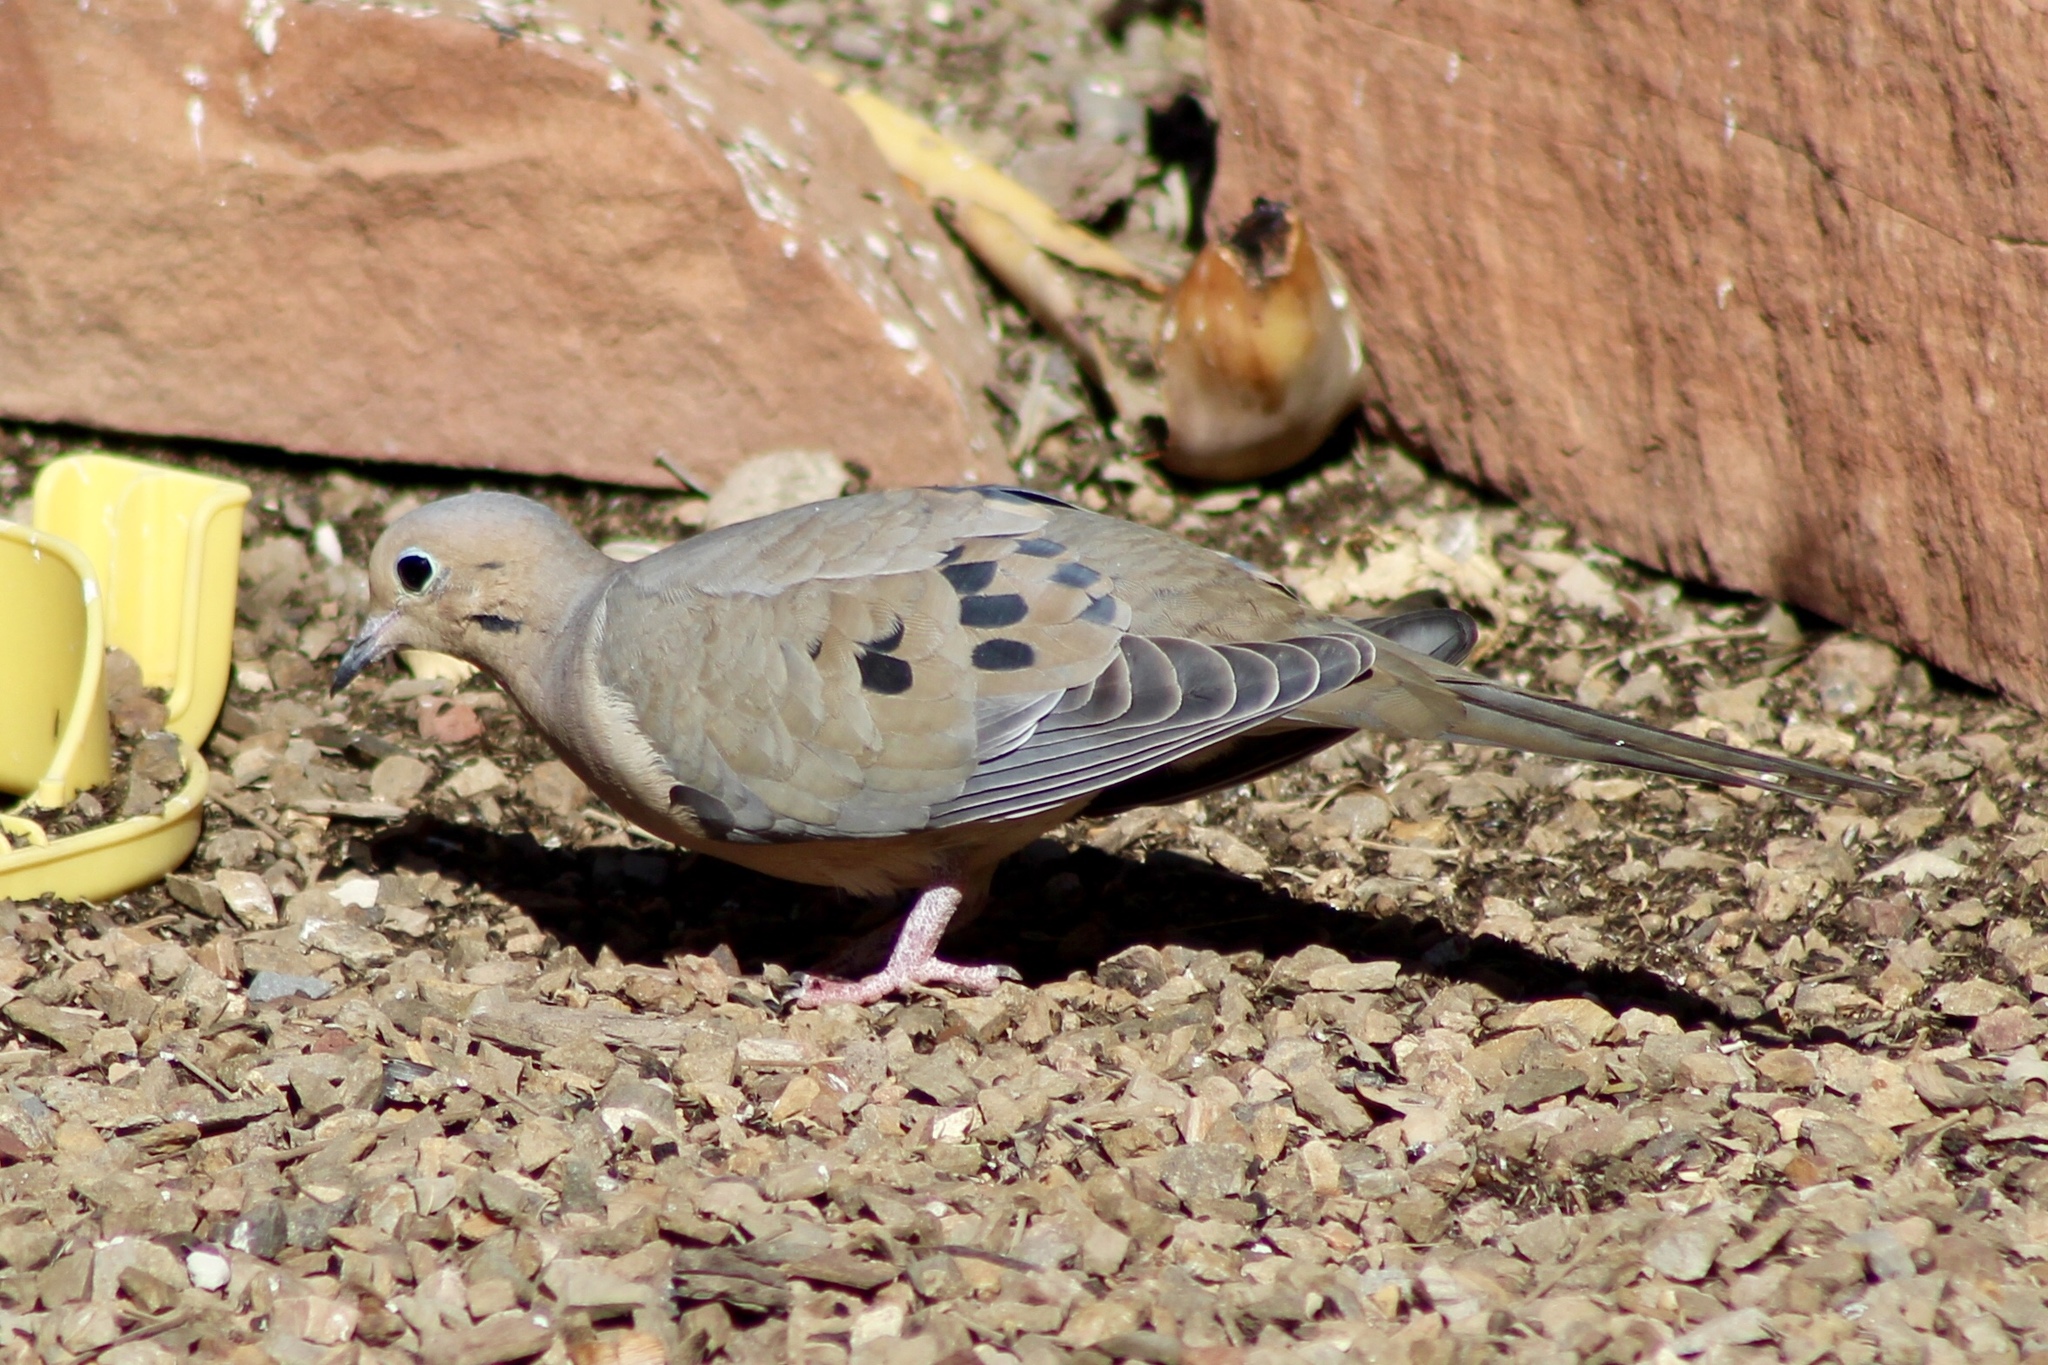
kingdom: Animalia
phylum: Chordata
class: Aves
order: Columbiformes
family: Columbidae
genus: Zenaida
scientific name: Zenaida macroura
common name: Mourning dove
